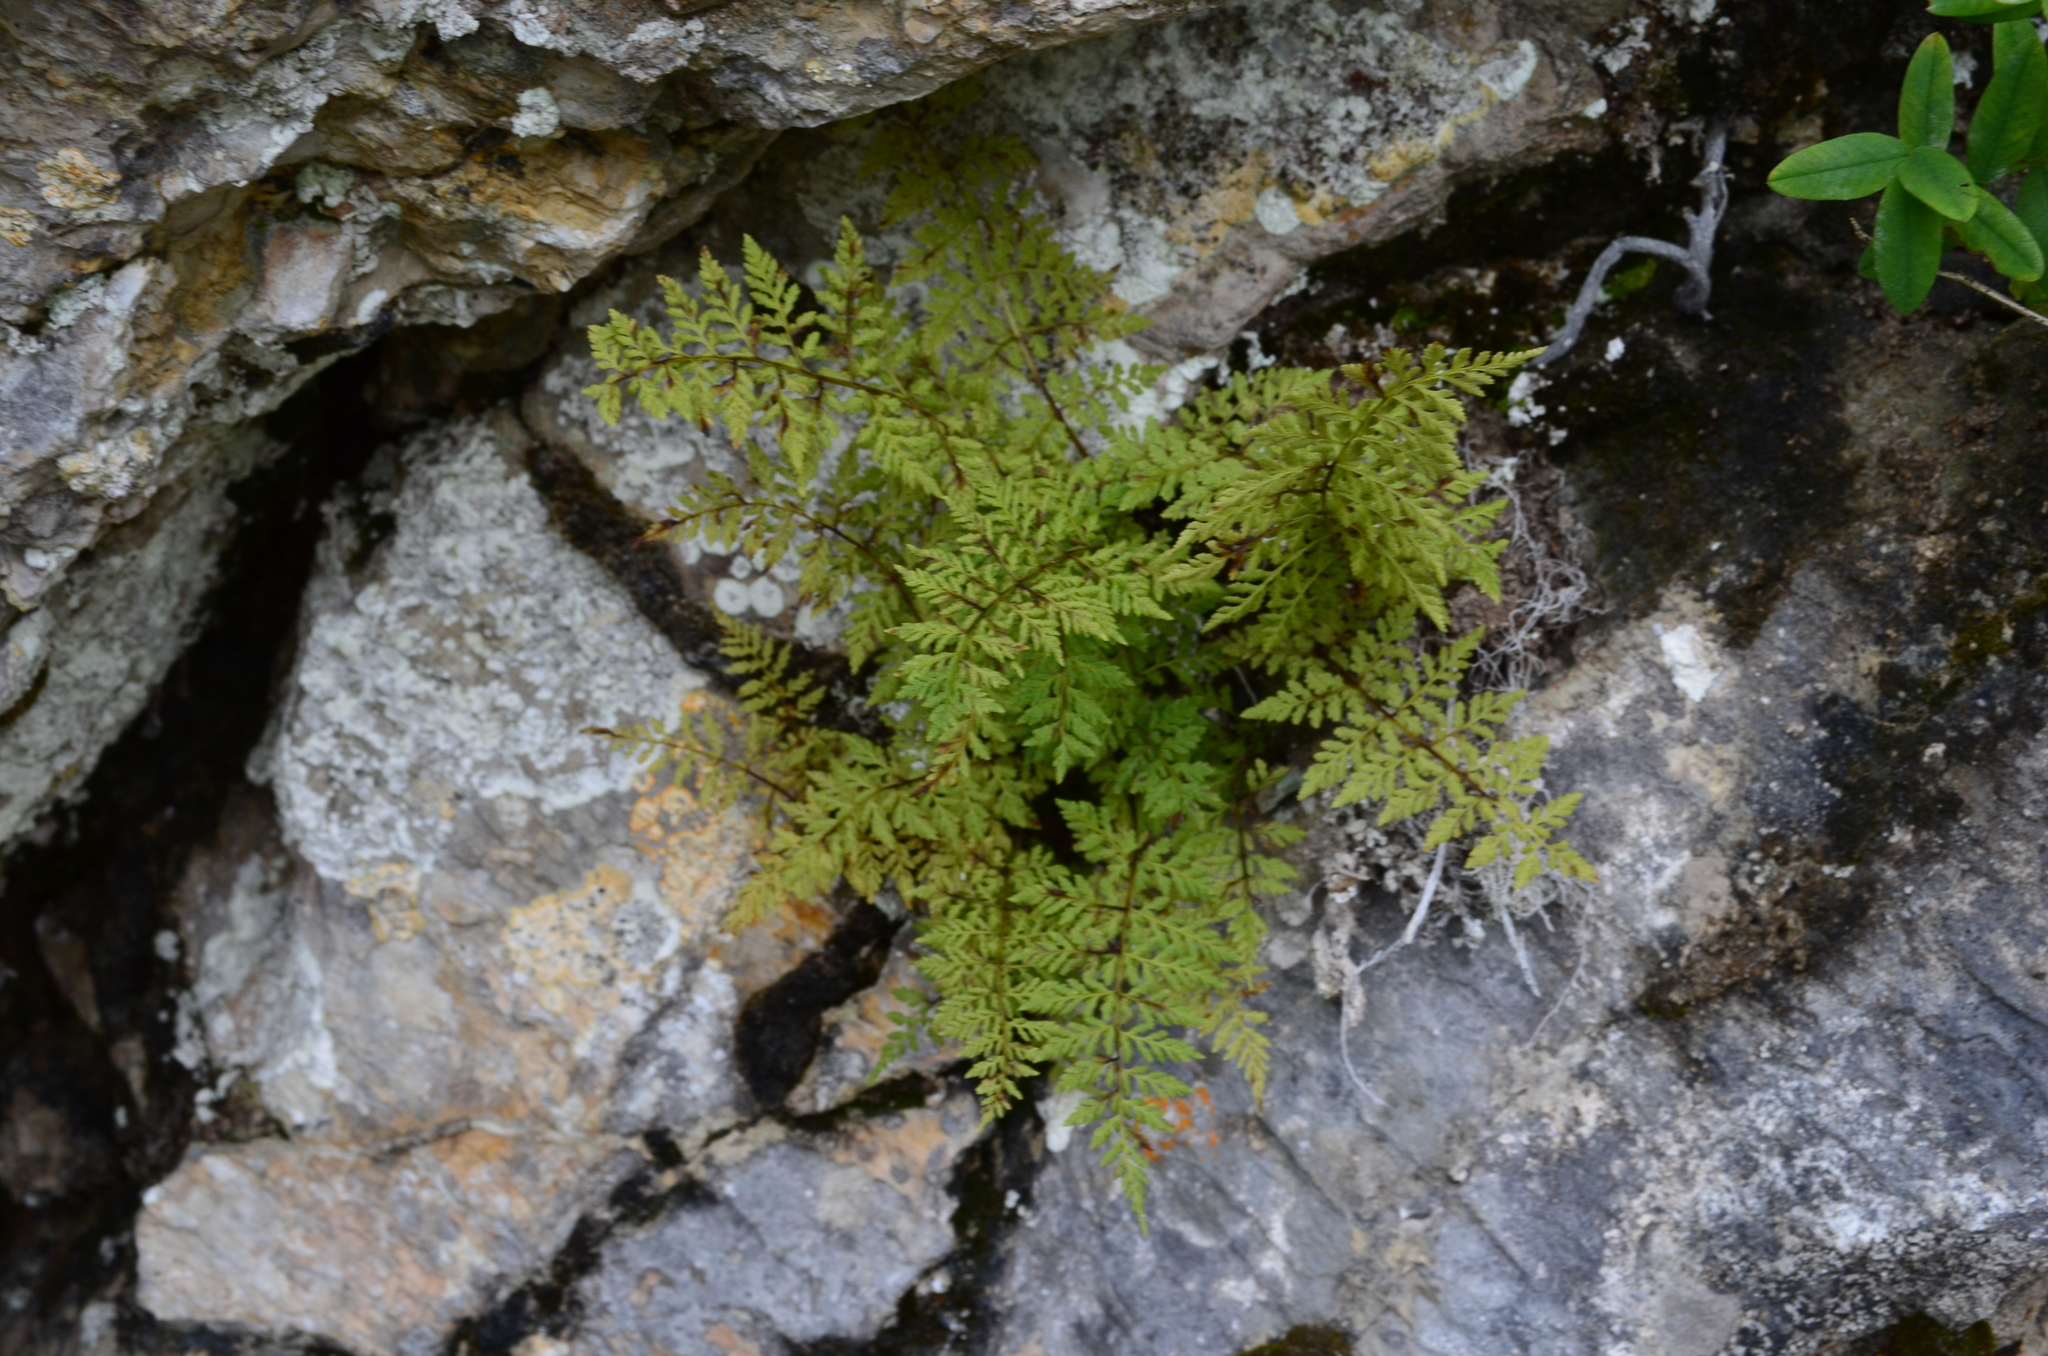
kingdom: Plantae
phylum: Tracheophyta
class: Polypodiopsida
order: Polypodiales
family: Cystopteridaceae
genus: Cystopteris
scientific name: Cystopteris fragilis
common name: Brittle bladder fern
